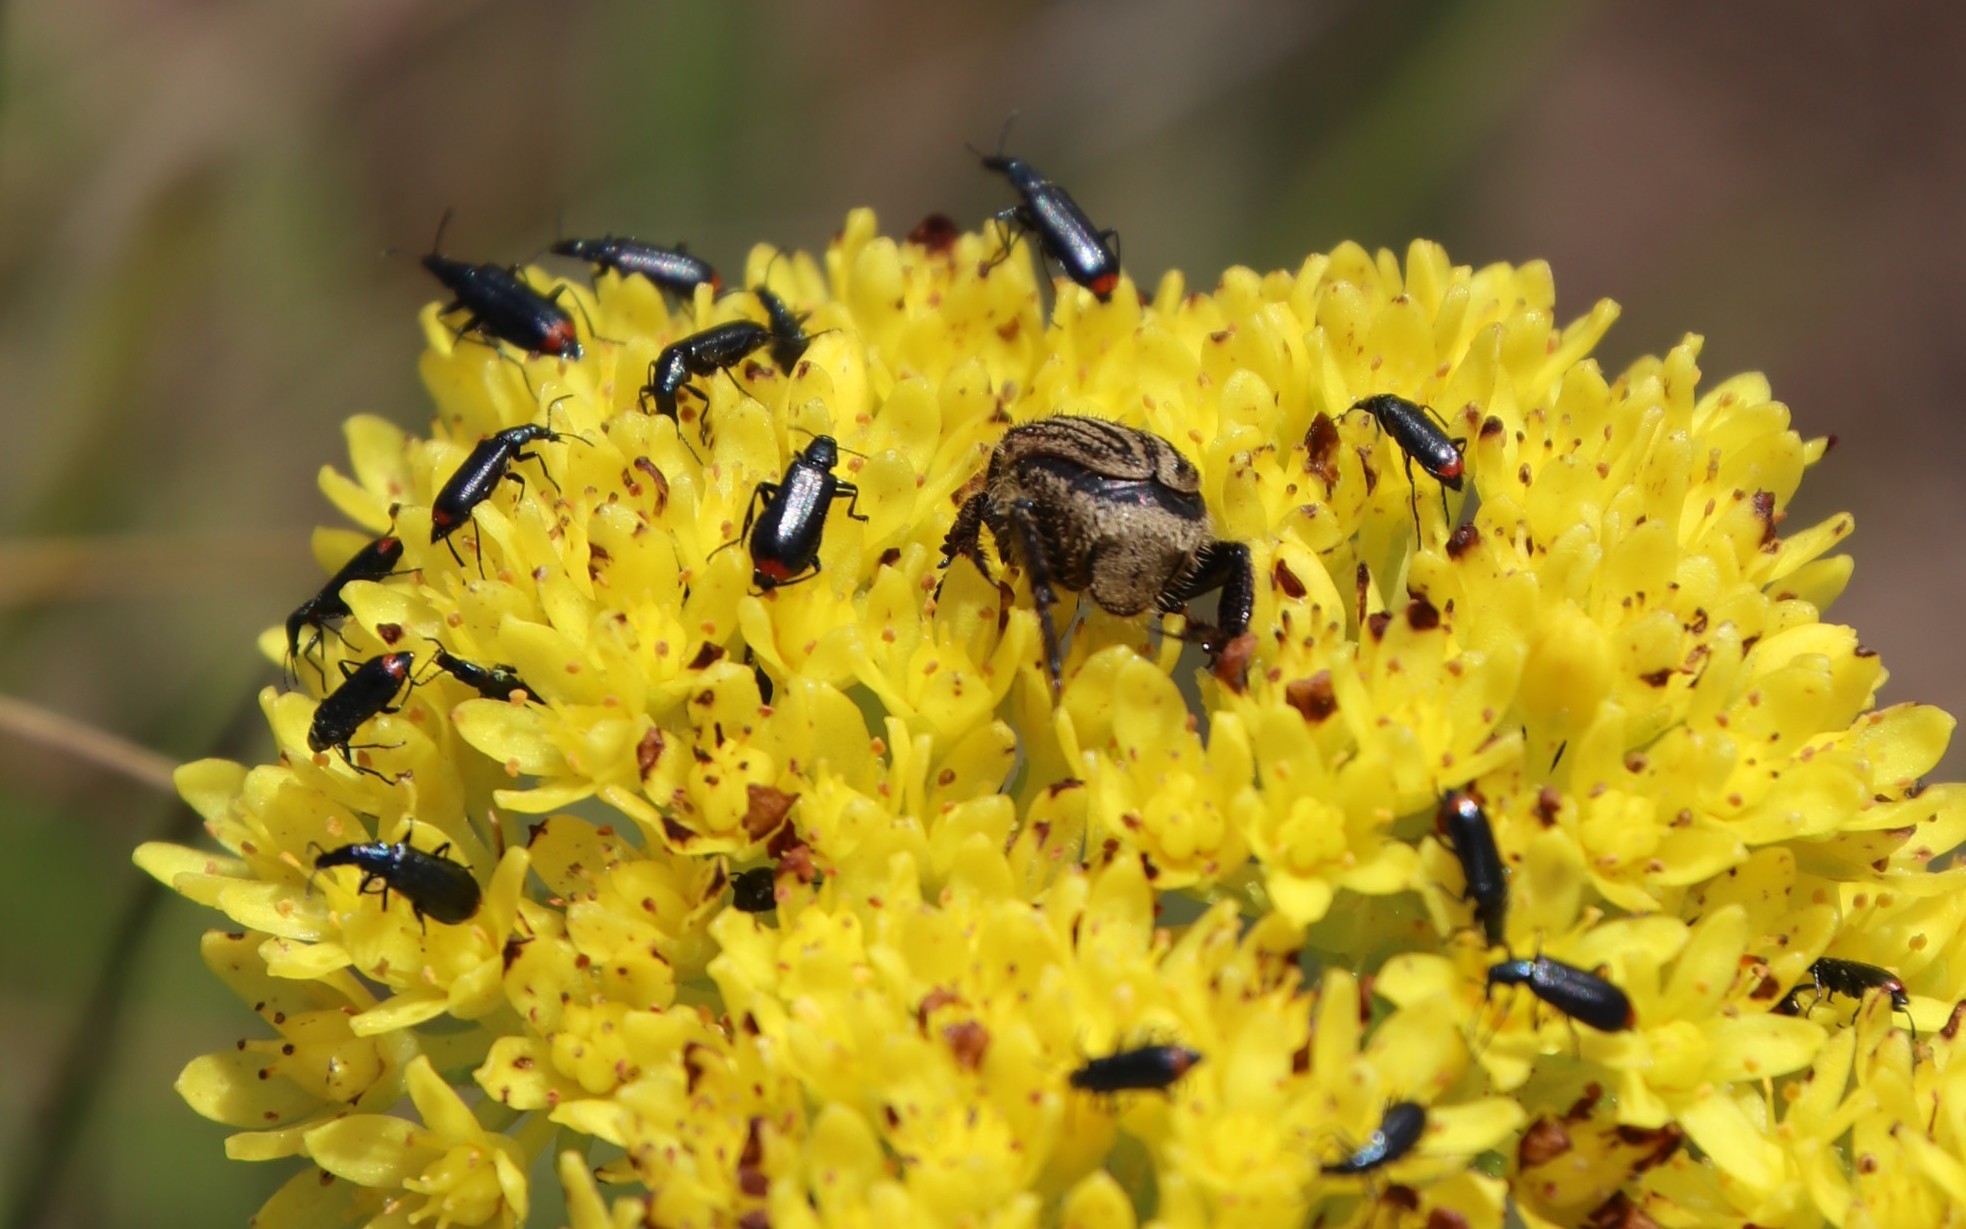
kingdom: Animalia
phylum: Arthropoda
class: Insecta
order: Coleoptera
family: Melyridae
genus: Pagurodactylus
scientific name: Pagurodactylus
